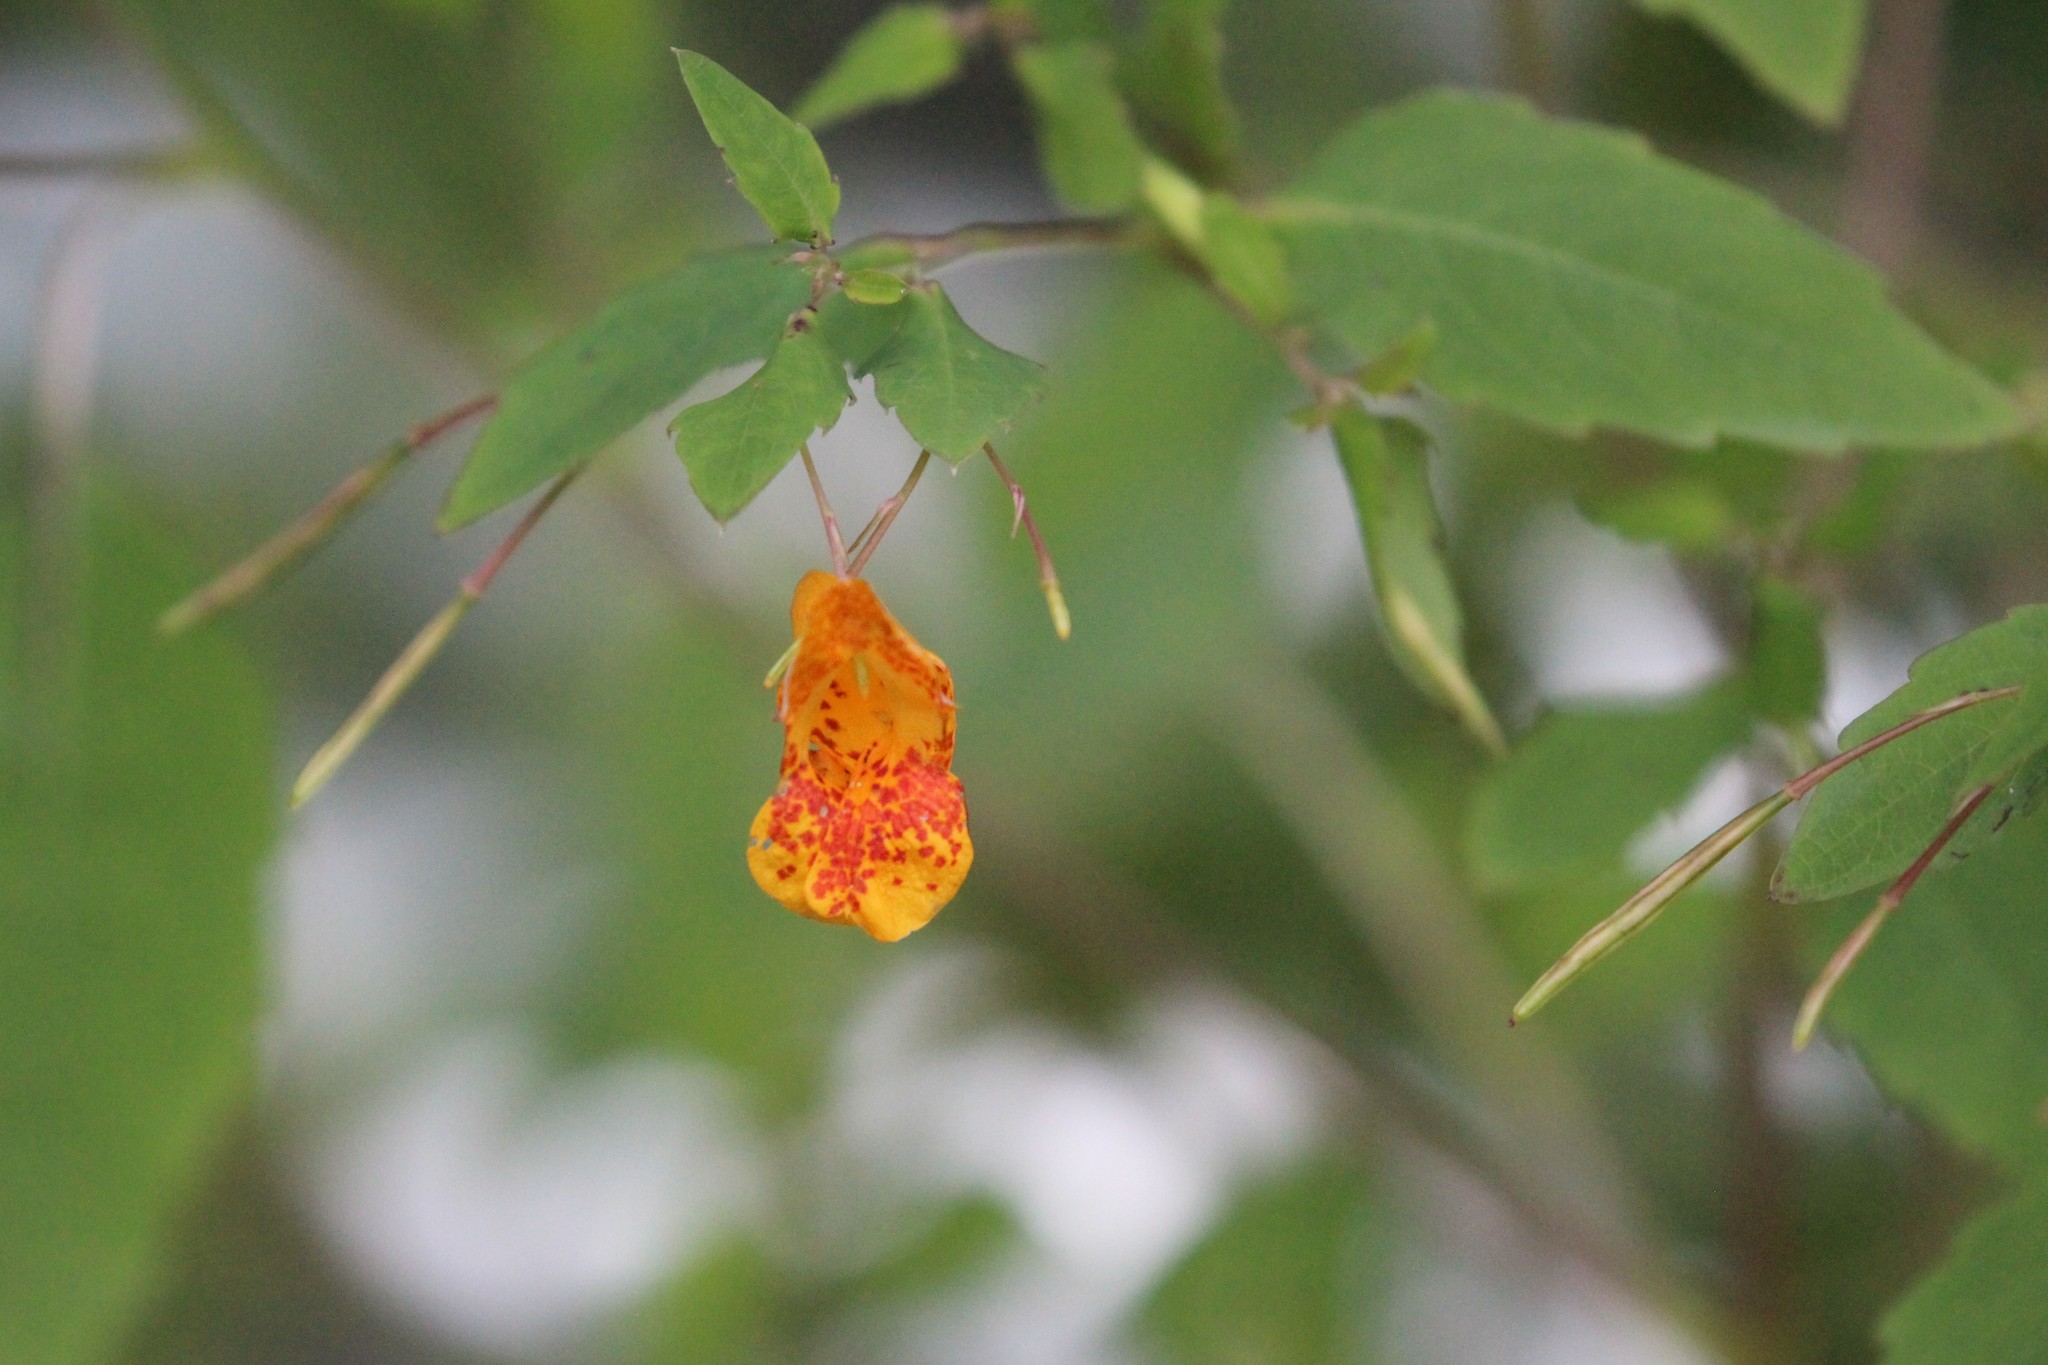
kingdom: Plantae
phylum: Tracheophyta
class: Magnoliopsida
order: Ericales
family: Balsaminaceae
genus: Impatiens
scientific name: Impatiens capensis
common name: Orange balsam
